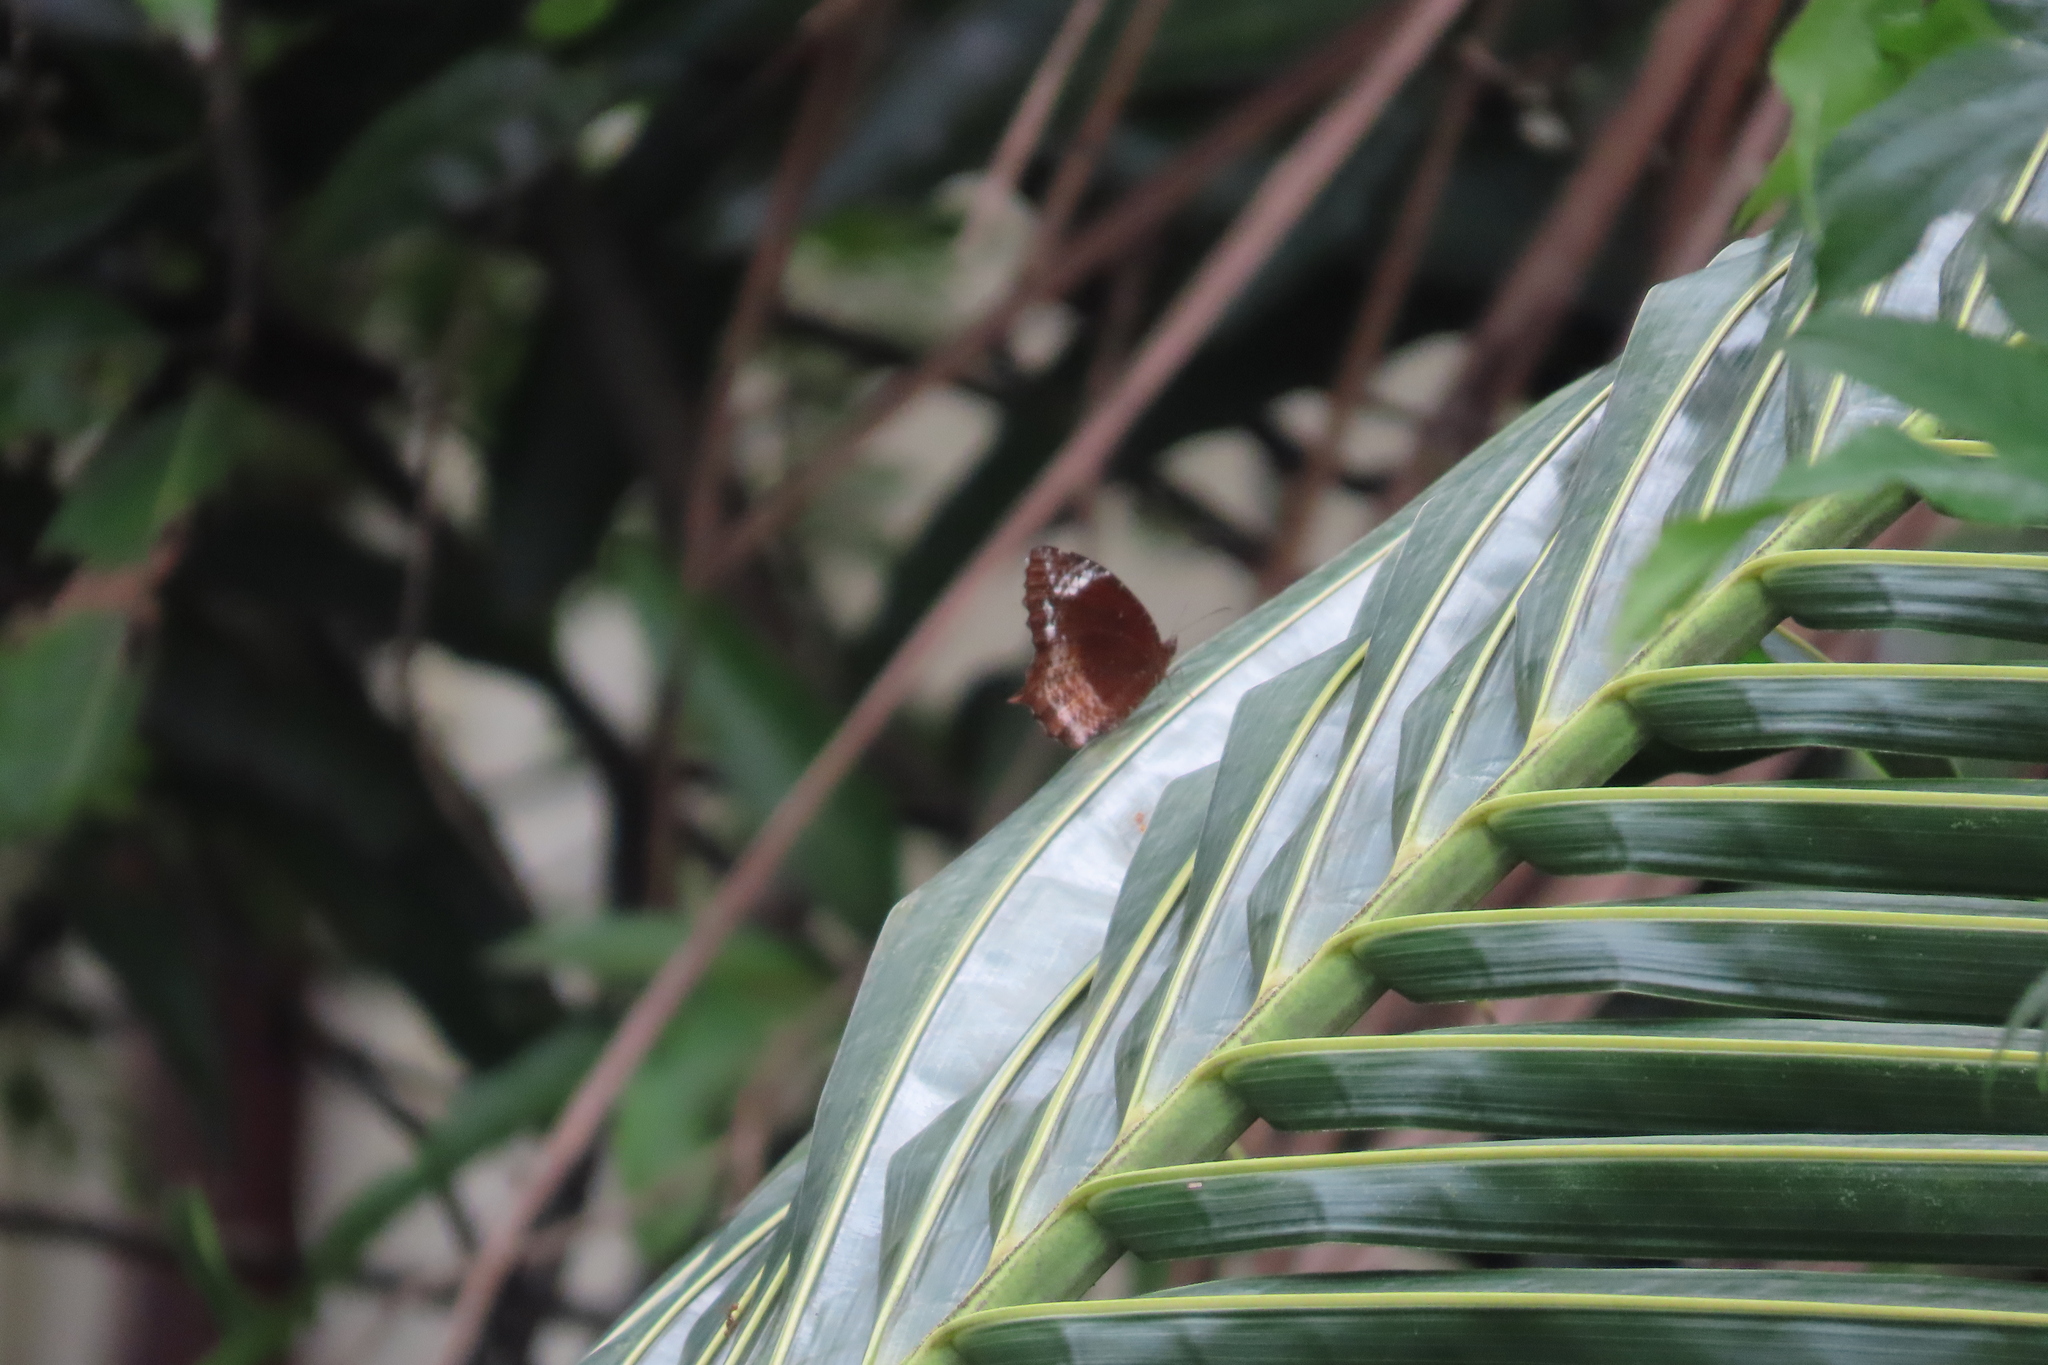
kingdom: Animalia
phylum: Arthropoda
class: Insecta
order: Lepidoptera
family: Nymphalidae
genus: Elymnias
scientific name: Elymnias caudata
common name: Tailed palmfly
